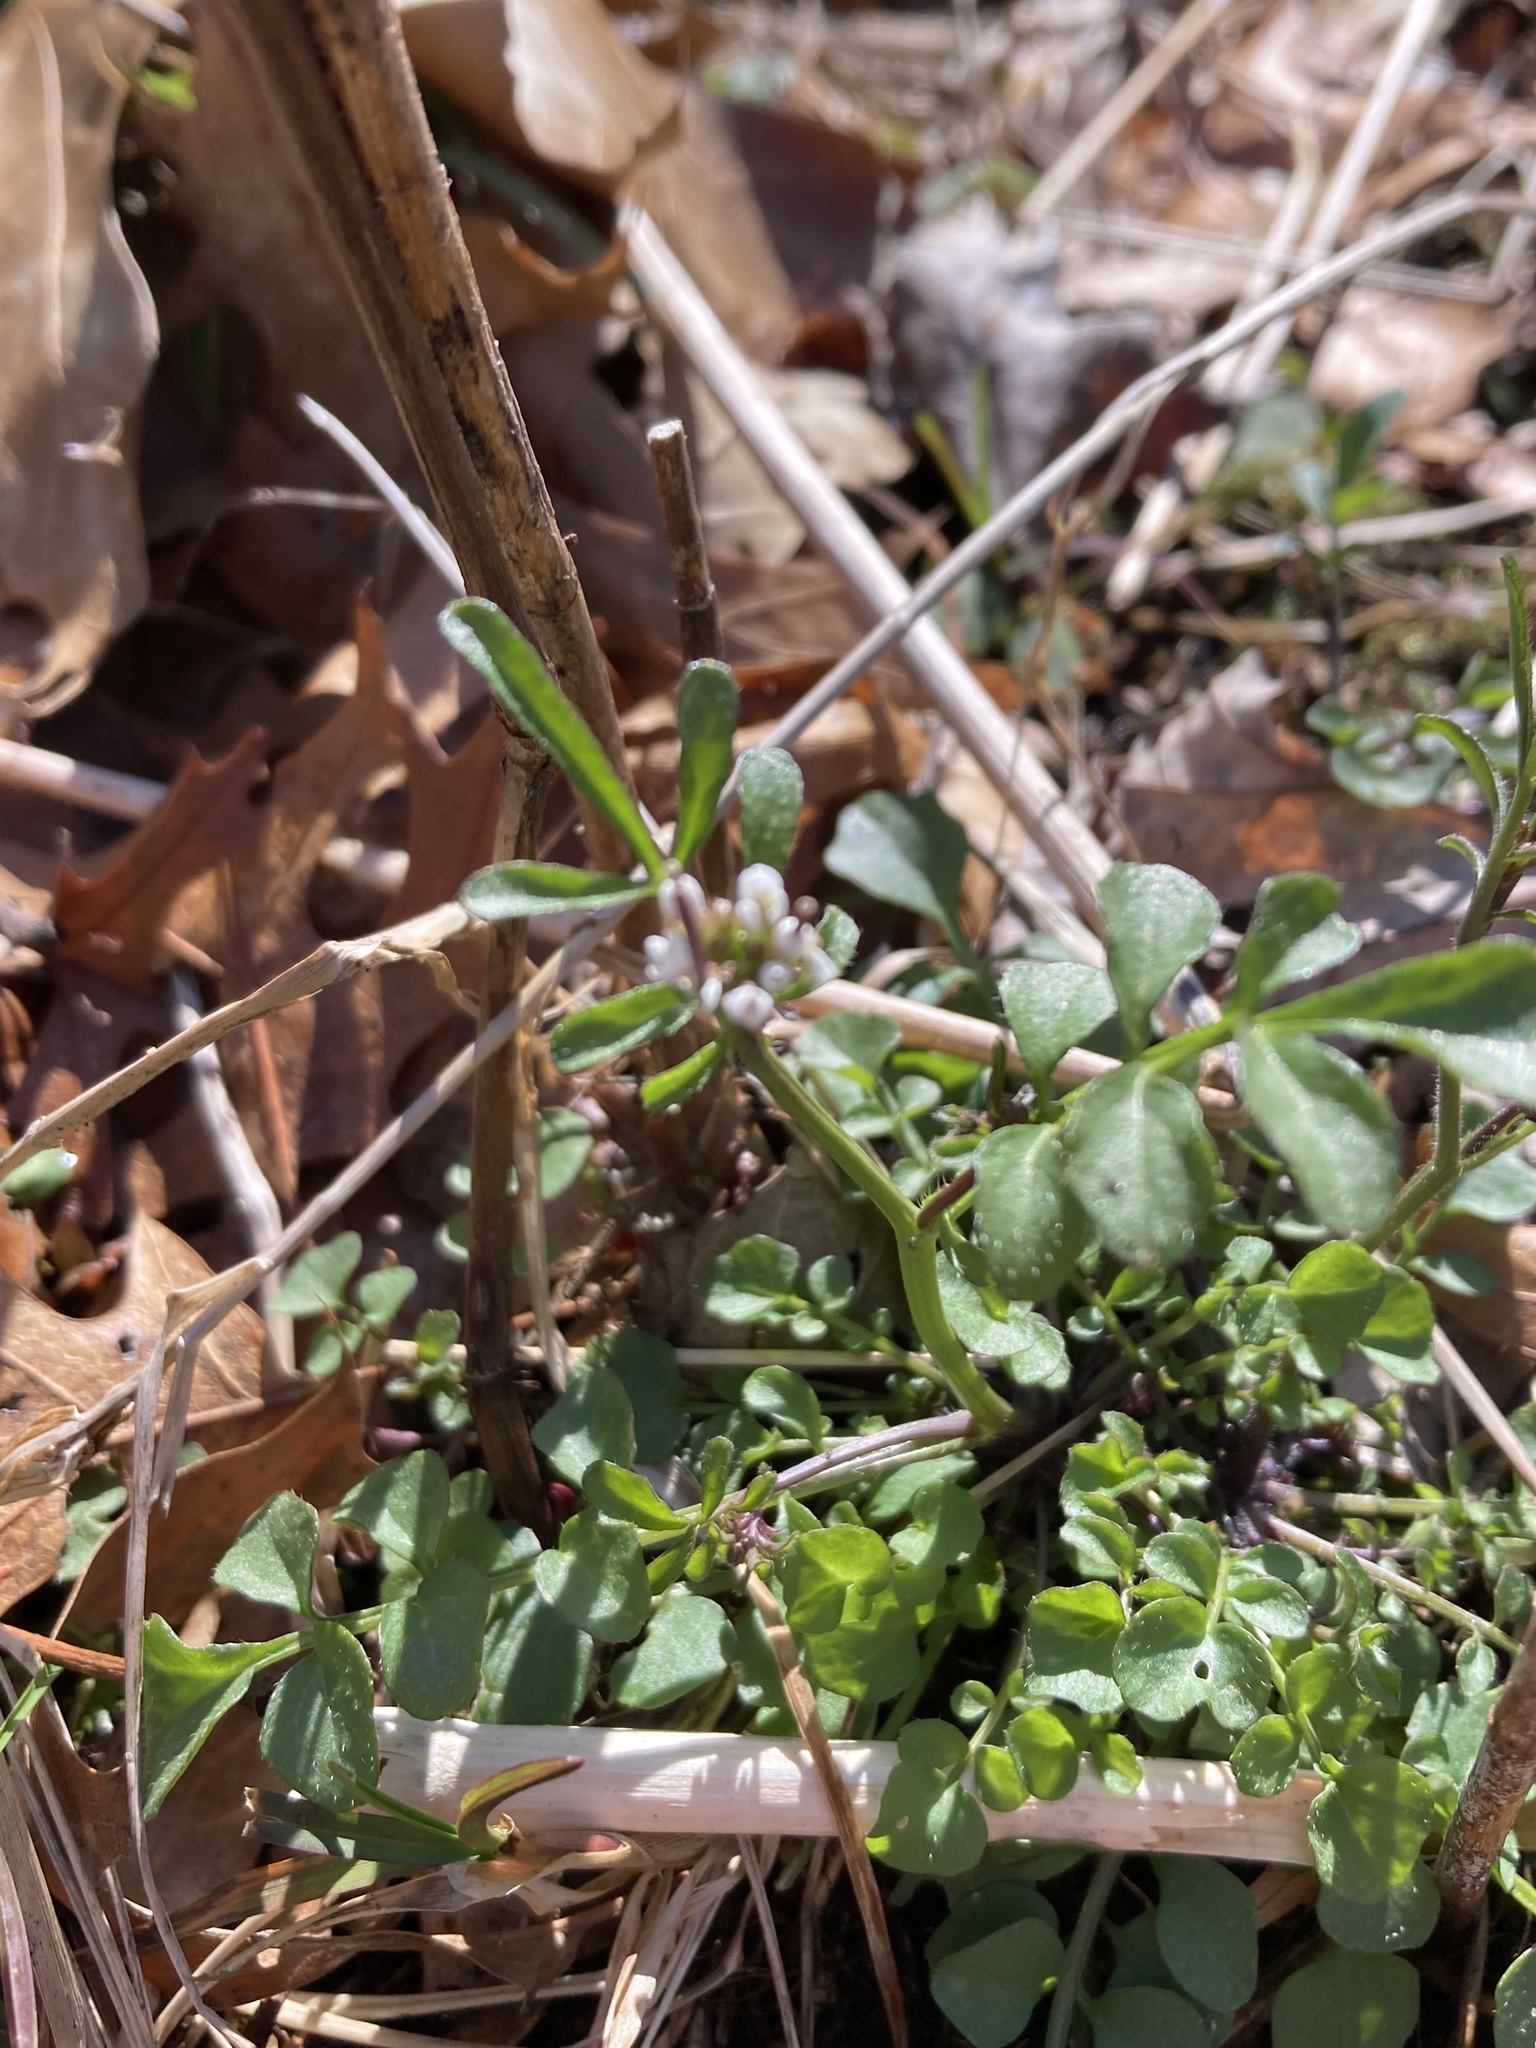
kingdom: Plantae
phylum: Tracheophyta
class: Magnoliopsida
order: Brassicales
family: Brassicaceae
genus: Cardamine
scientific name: Cardamine hirsuta
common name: Hairy bittercress
